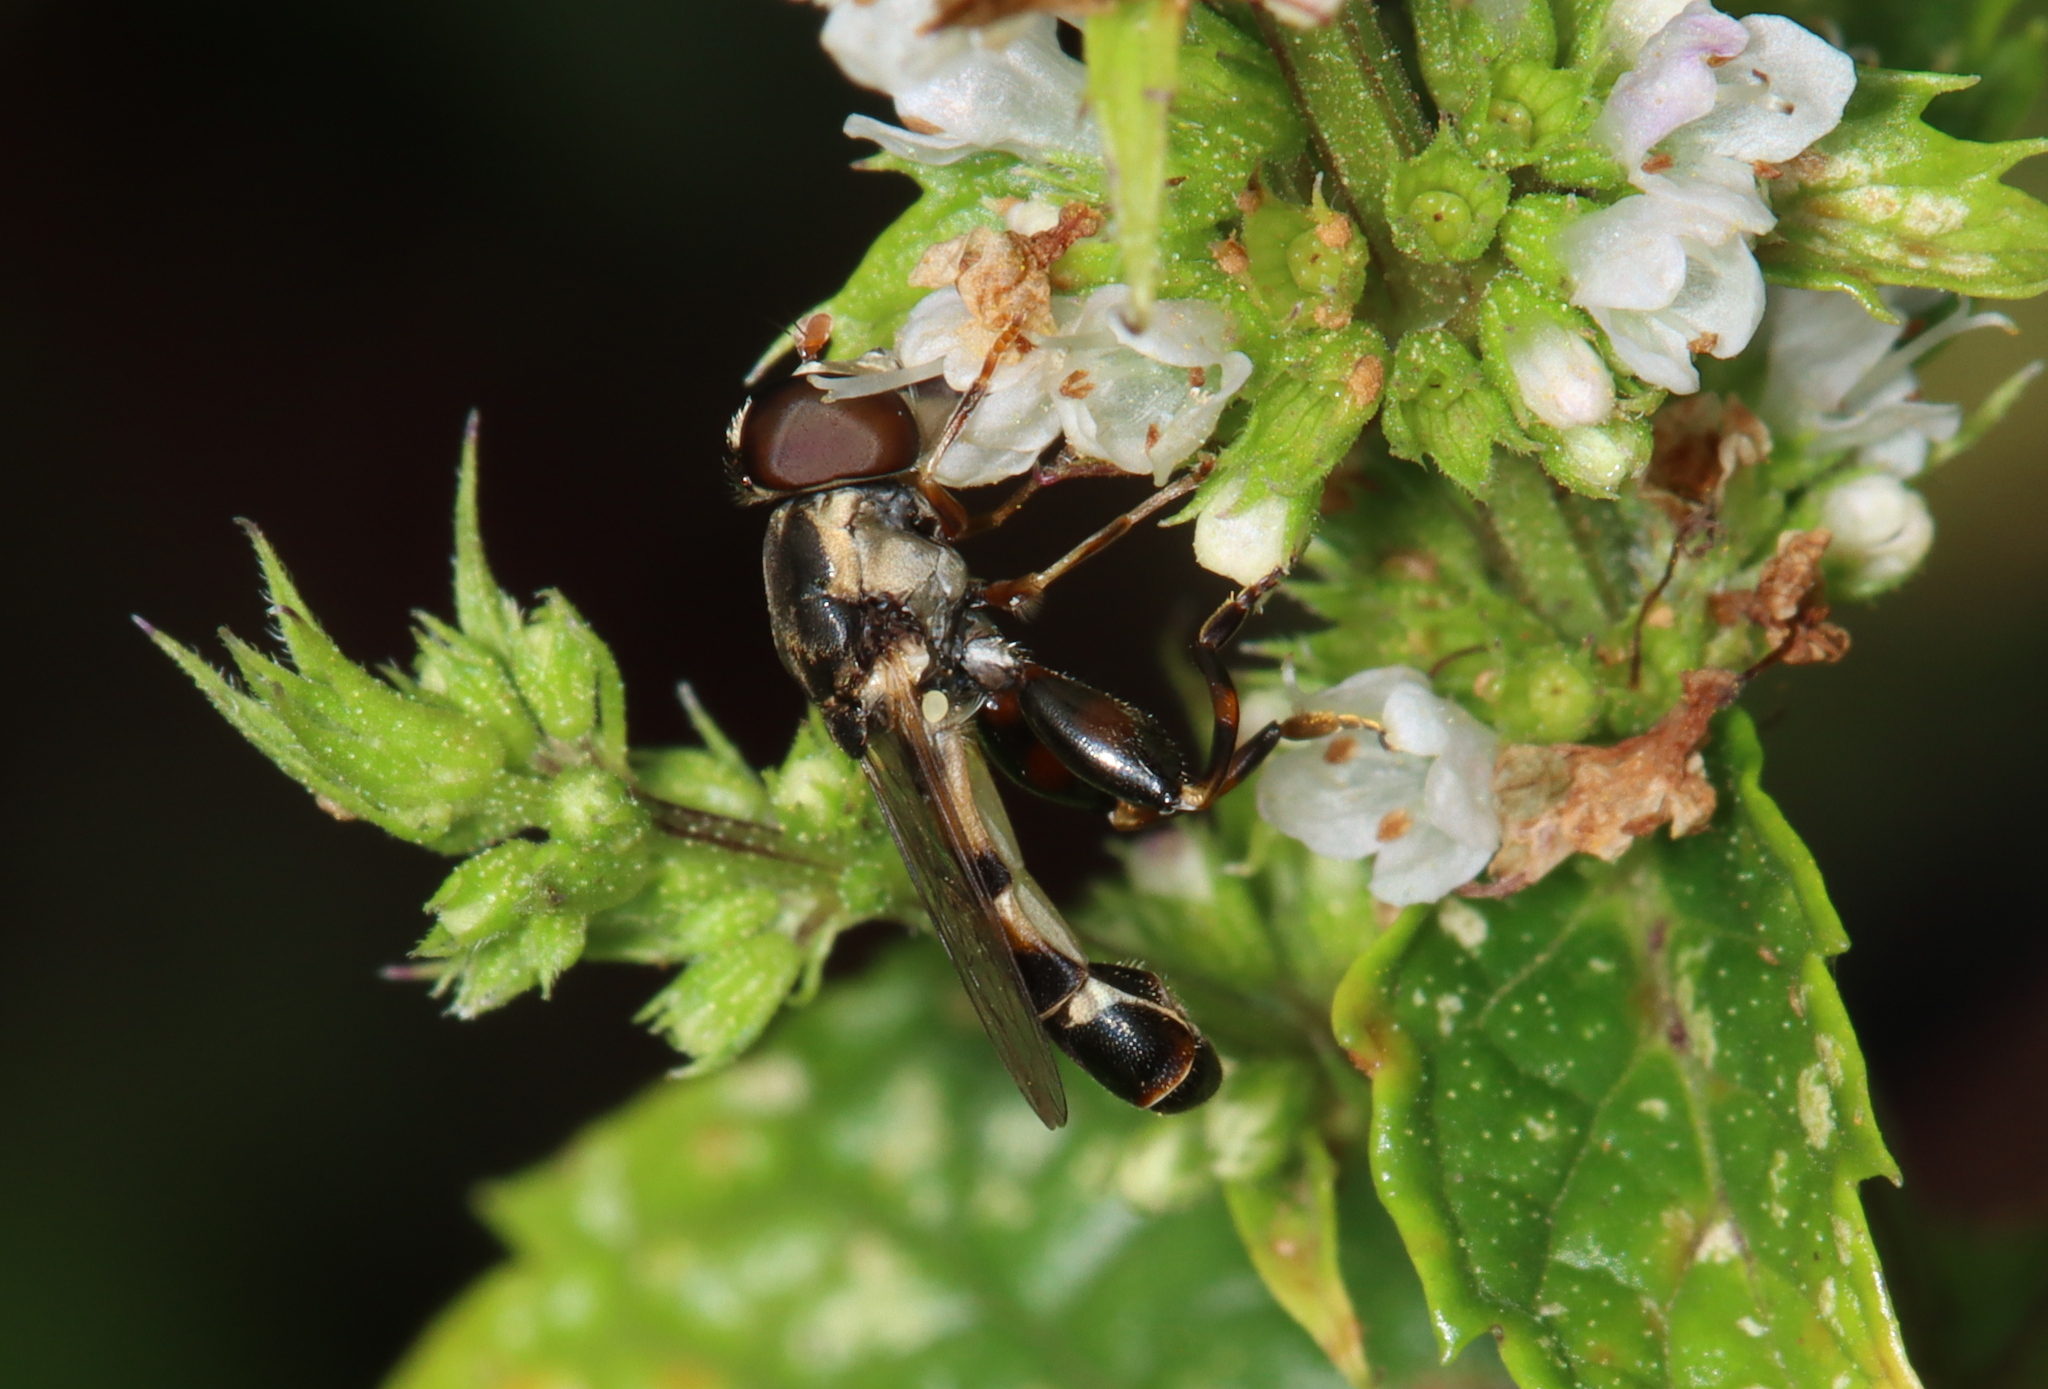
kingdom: Animalia
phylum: Arthropoda
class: Insecta
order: Diptera
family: Syrphidae
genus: Syritta
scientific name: Syritta pipiens
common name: Hover fly
